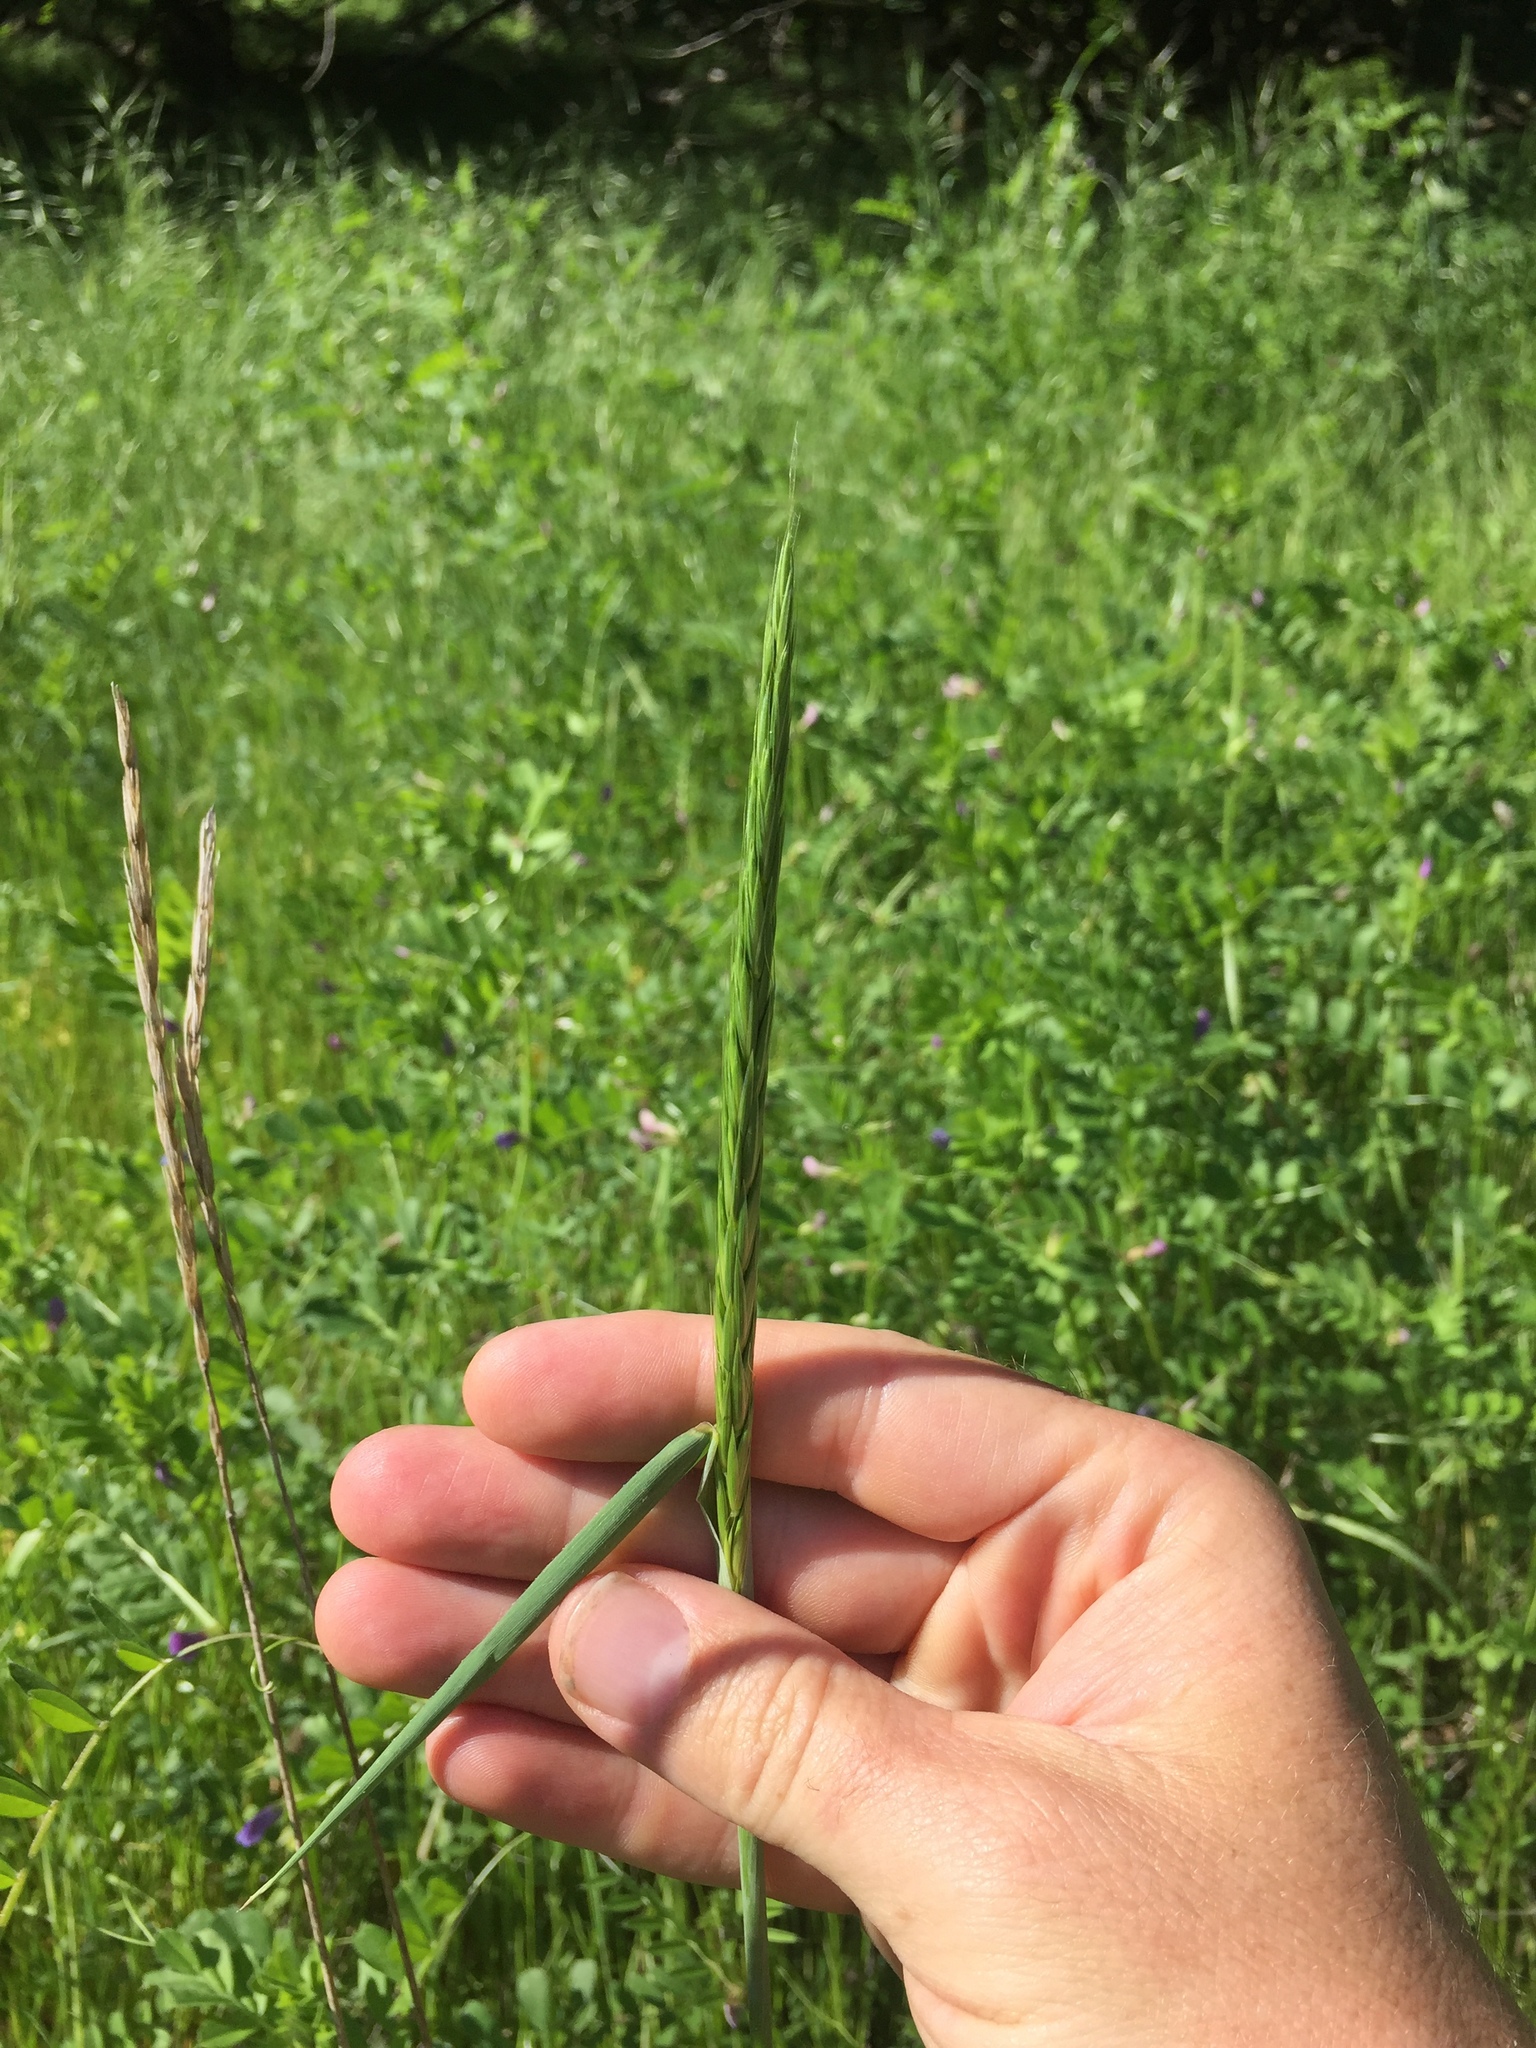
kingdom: Plantae
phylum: Tracheophyta
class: Liliopsida
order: Poales
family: Poaceae
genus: Elymus
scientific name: Elymus glaucus
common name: Blue wild rye
